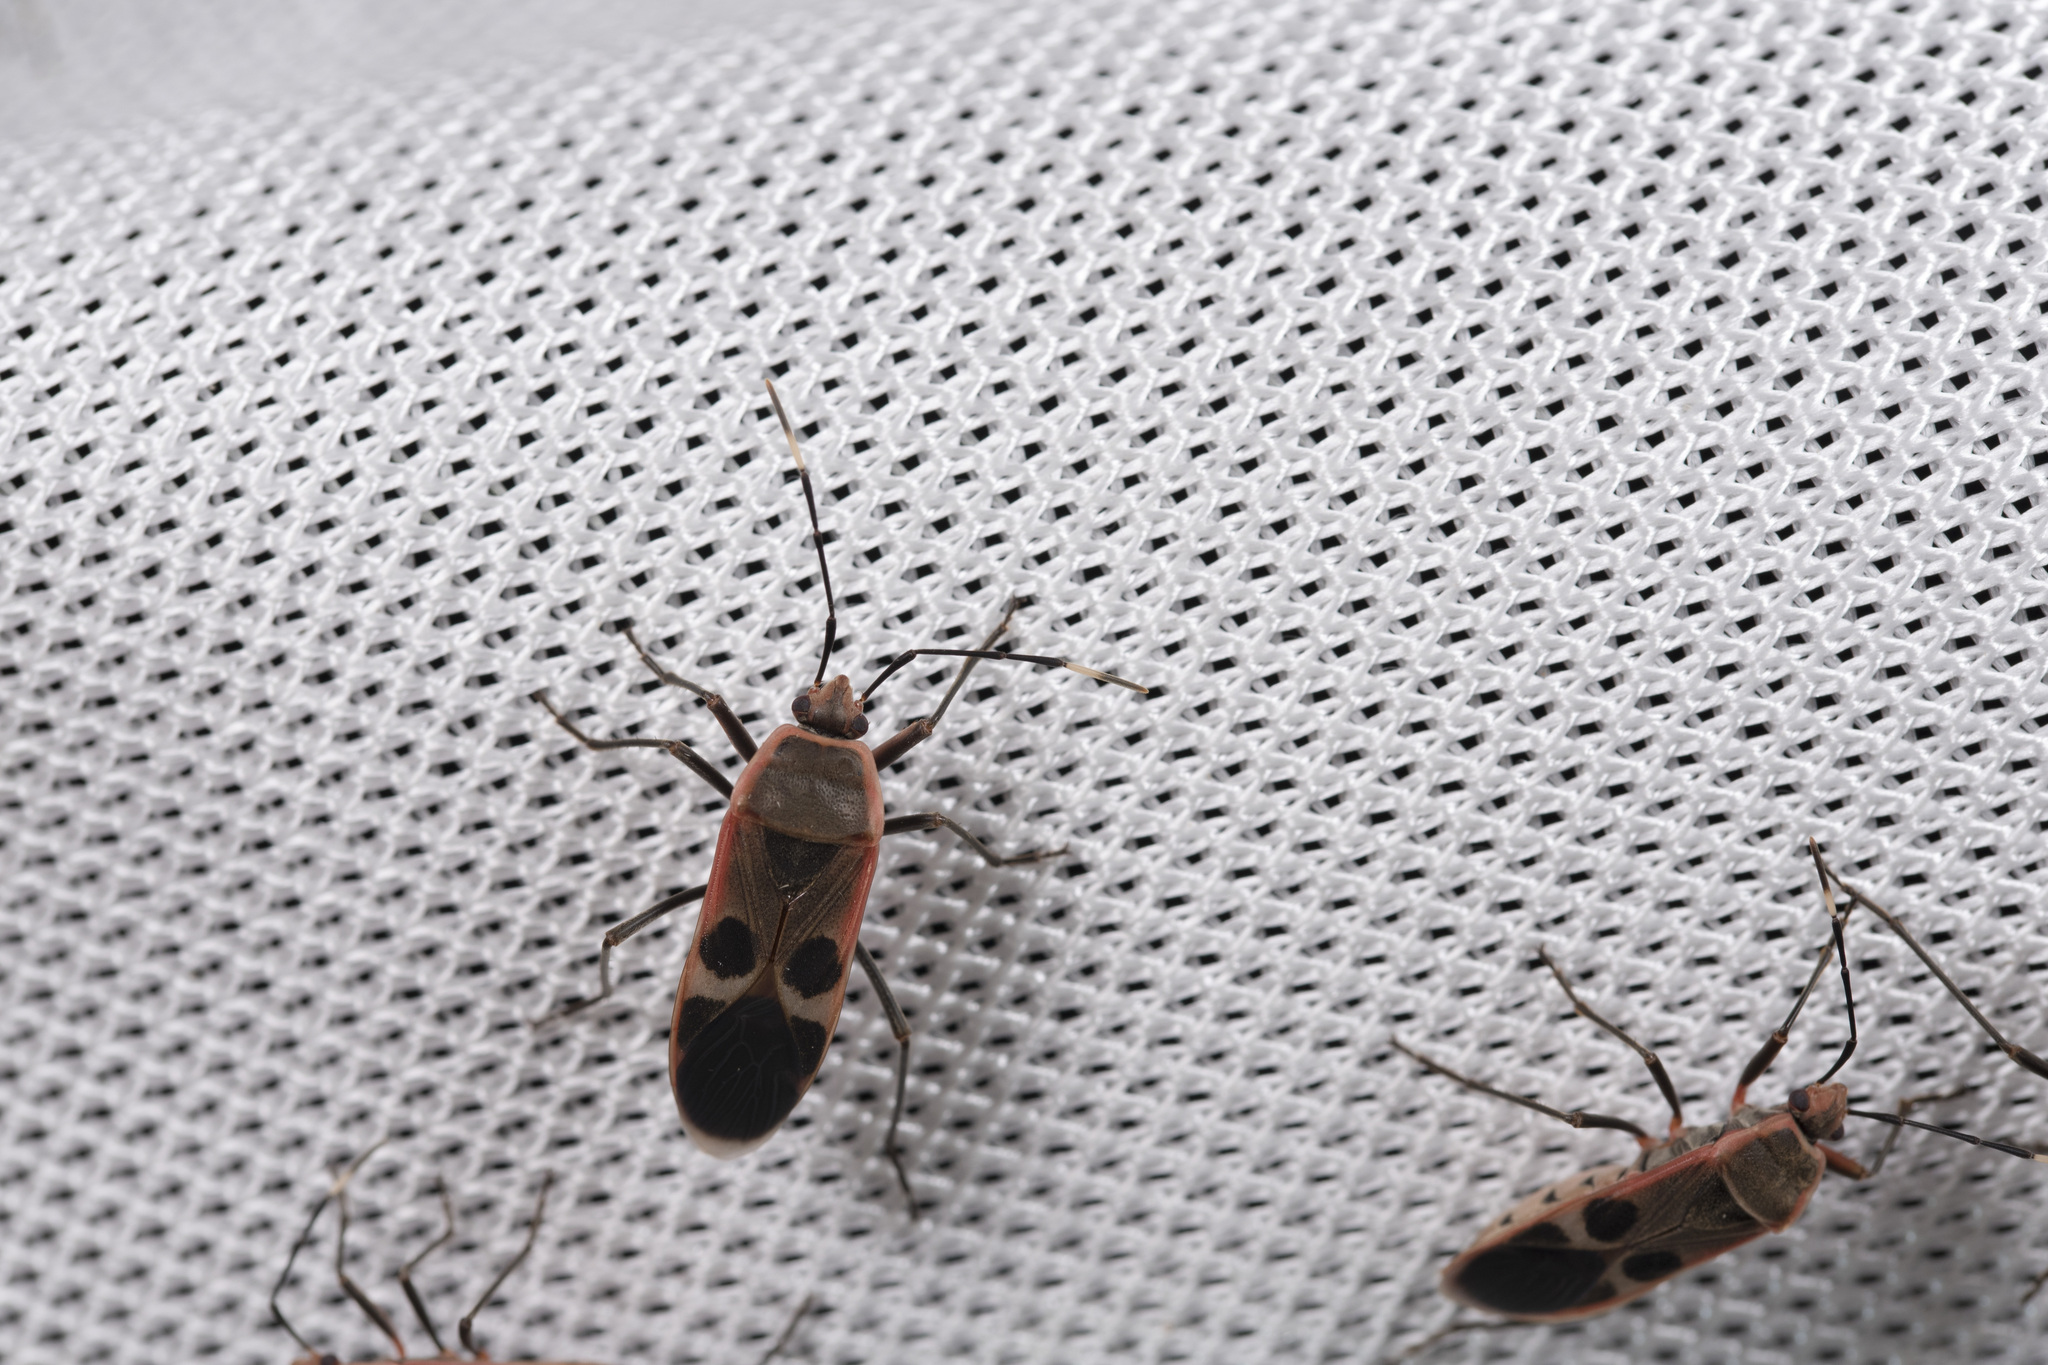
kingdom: Animalia
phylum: Arthropoda
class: Insecta
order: Hemiptera
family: Largidae
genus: Physopelta
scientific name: Physopelta gutta
